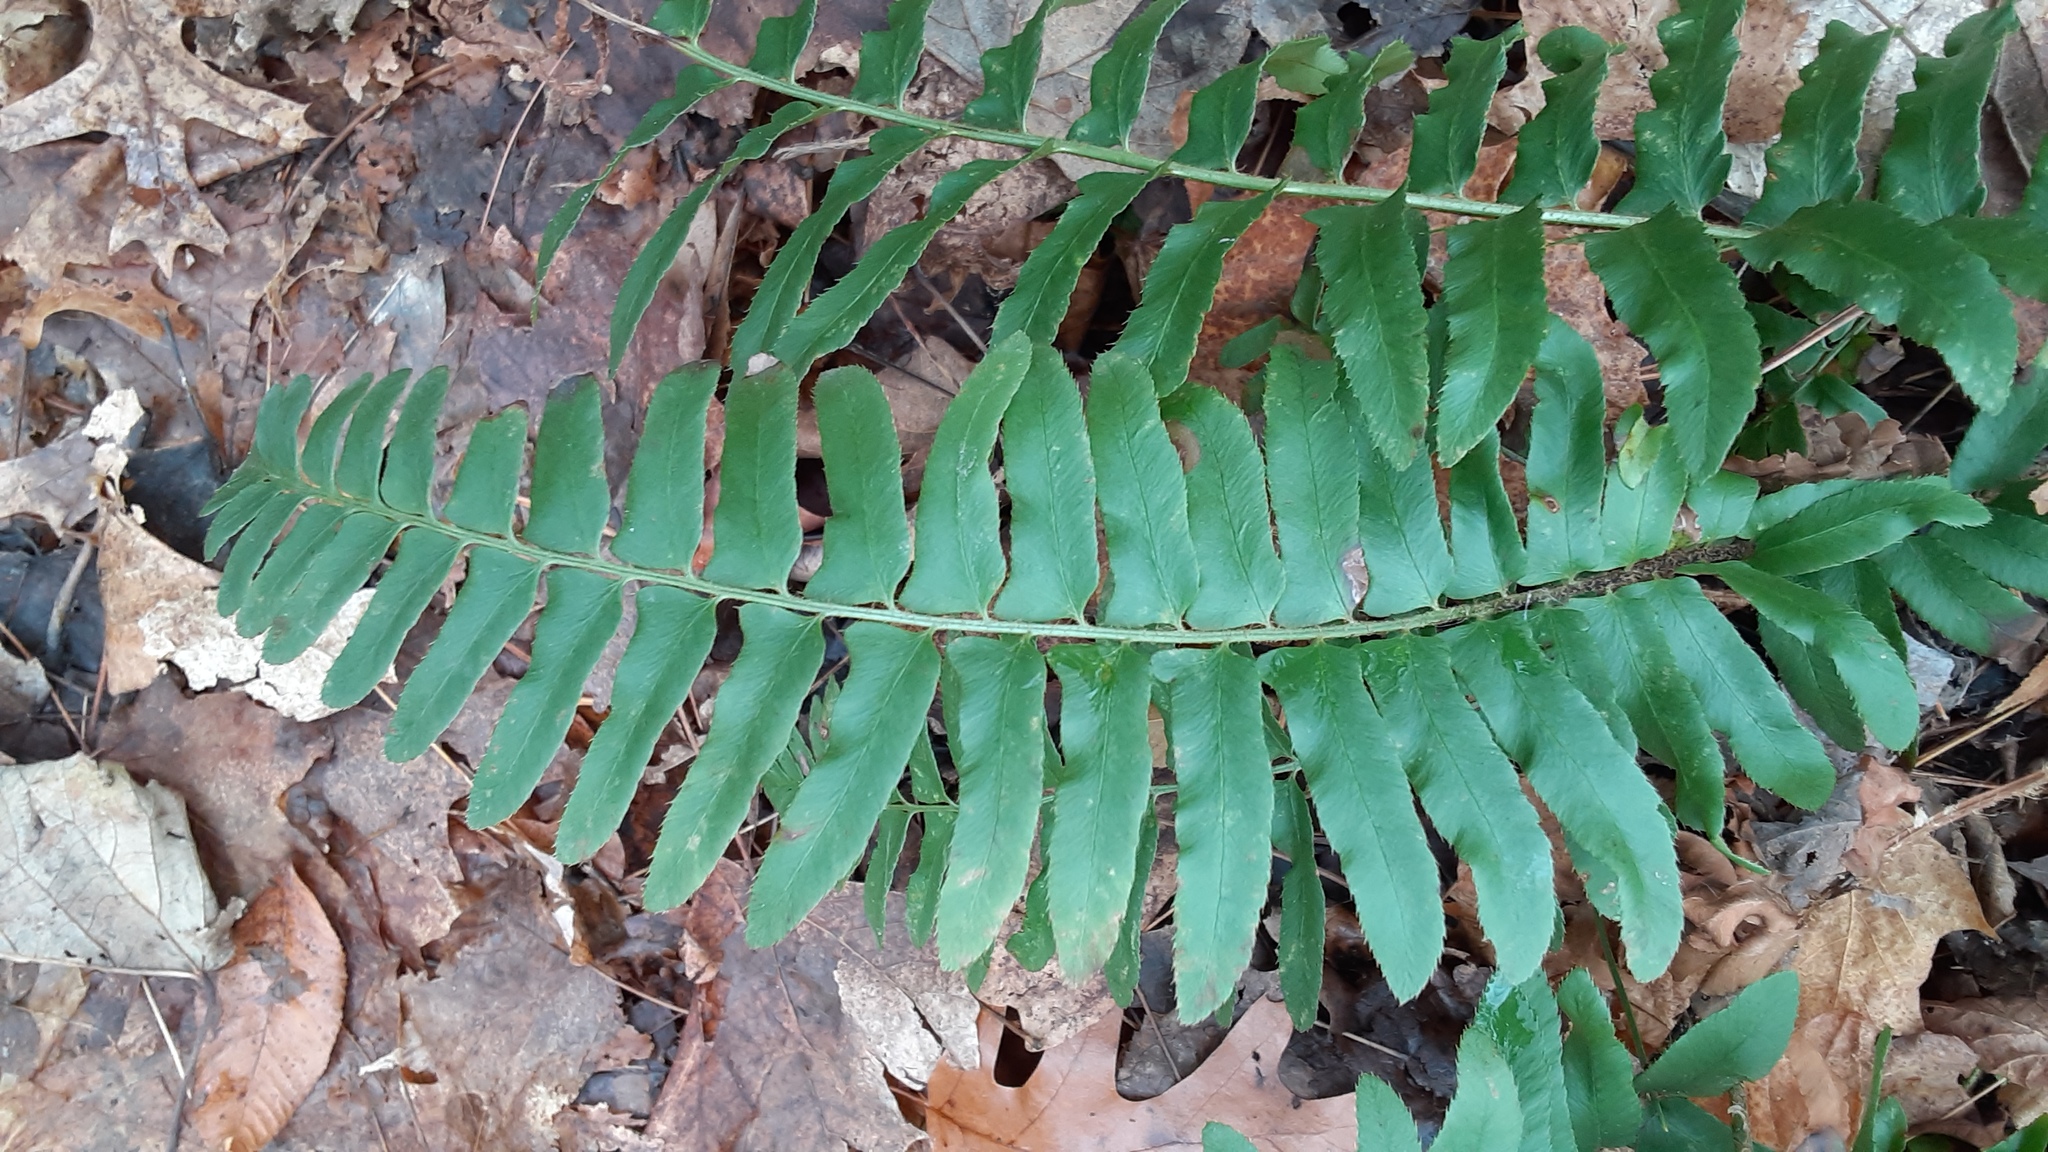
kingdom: Plantae
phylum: Tracheophyta
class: Polypodiopsida
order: Polypodiales
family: Dryopteridaceae
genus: Polystichum
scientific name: Polystichum acrostichoides
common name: Christmas fern
